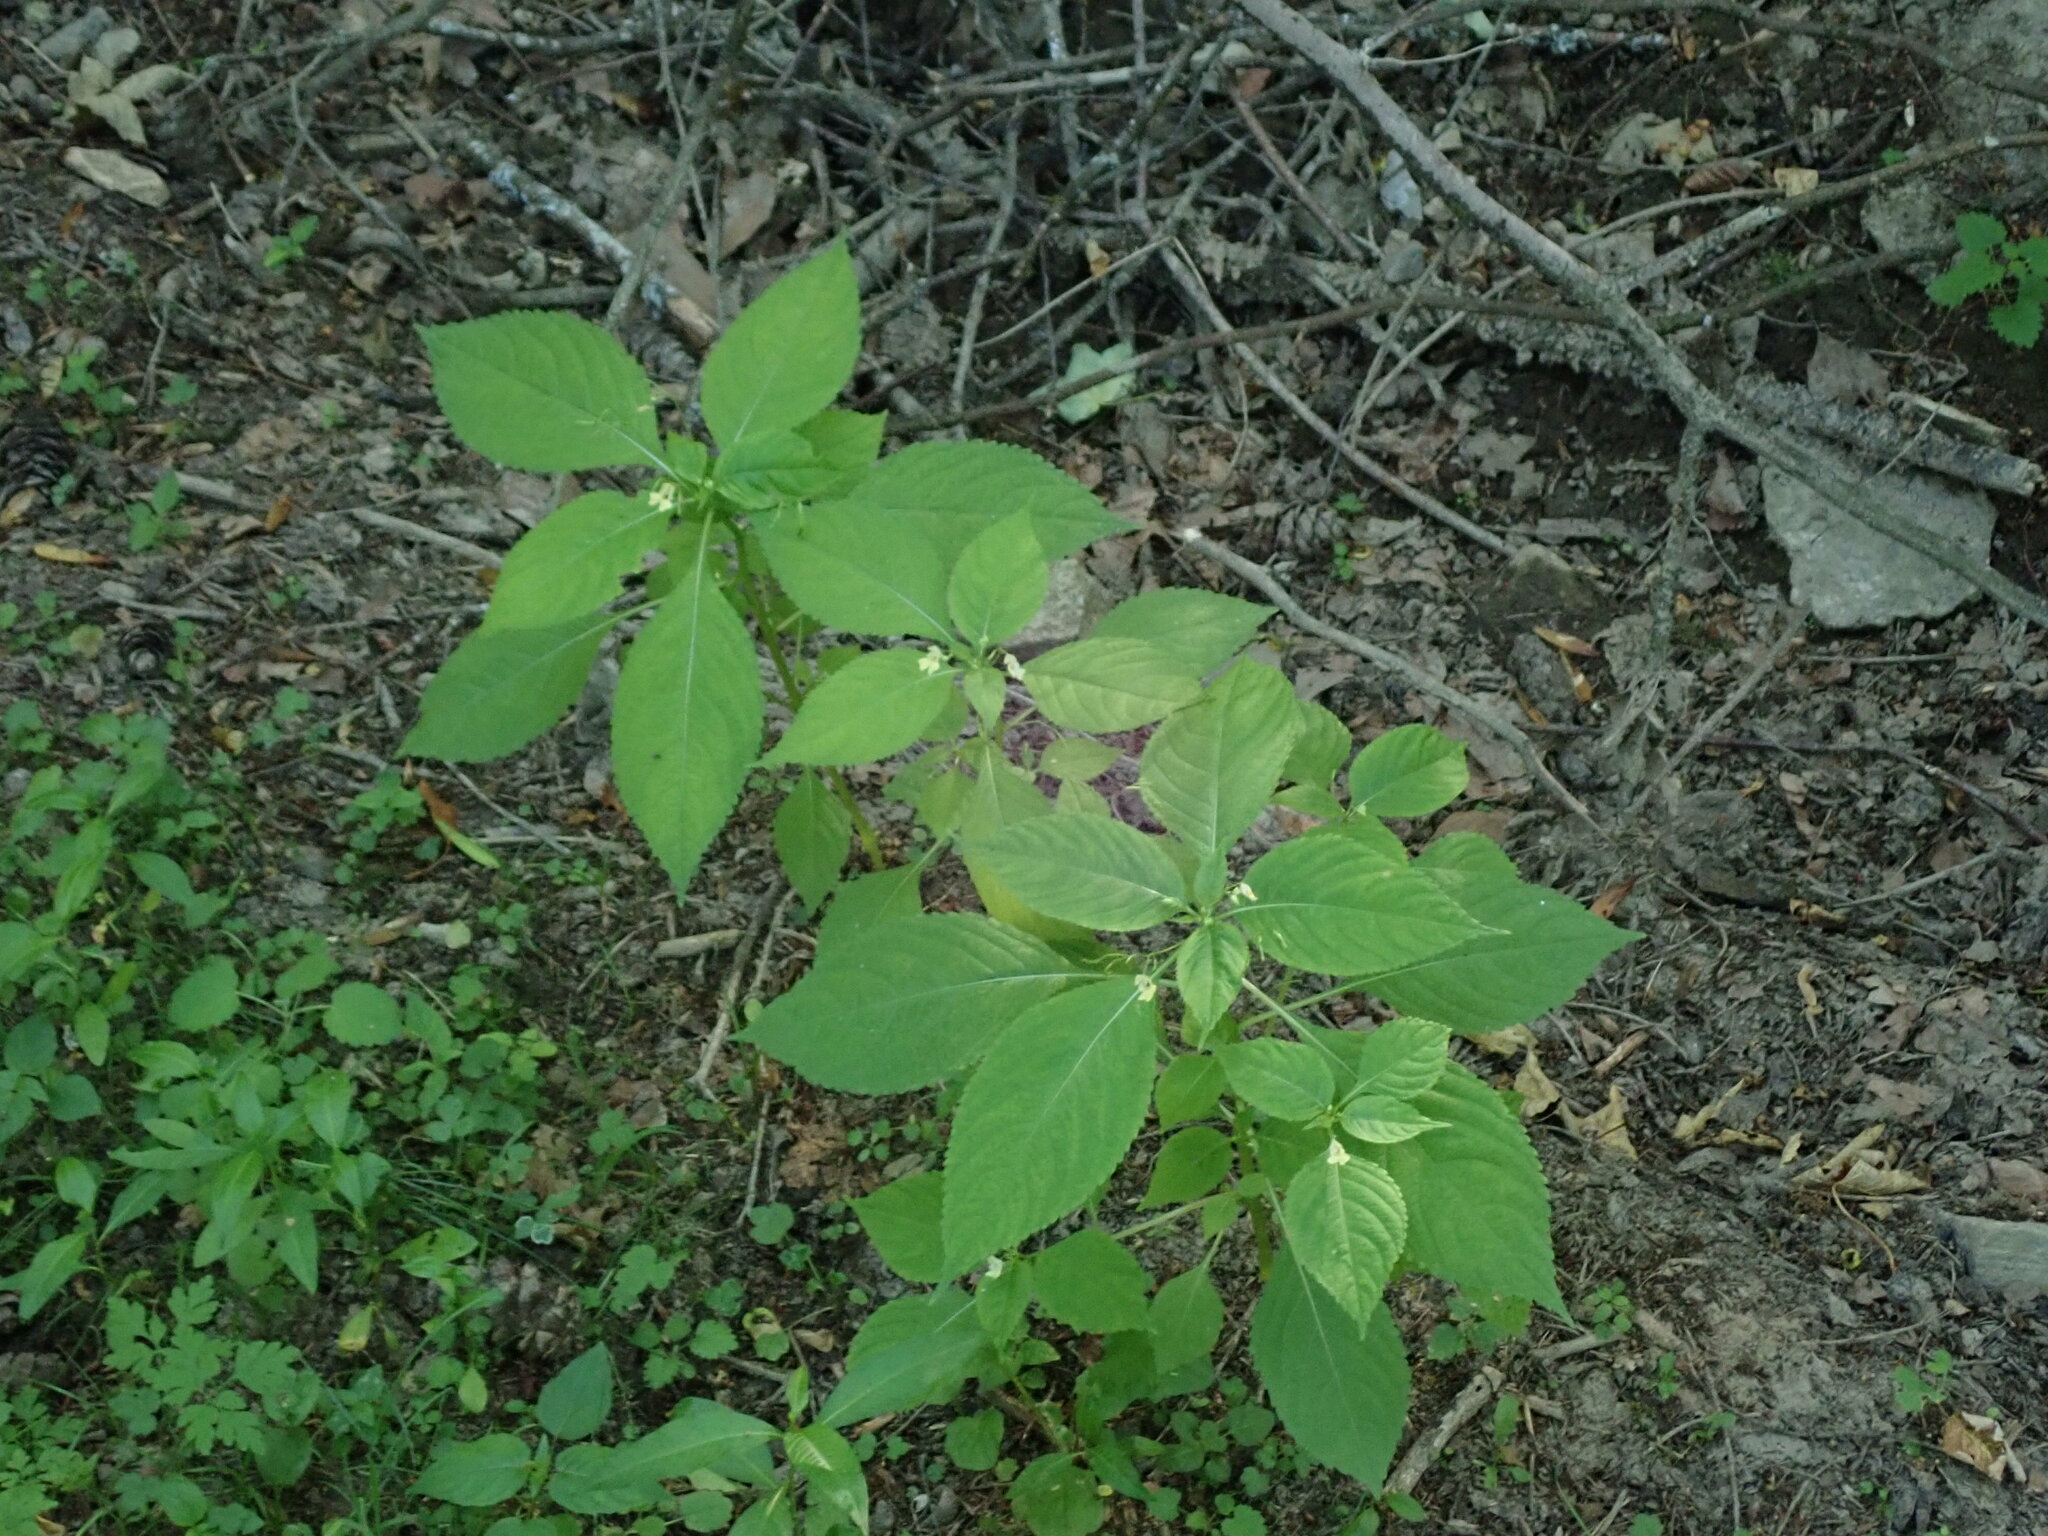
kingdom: Plantae
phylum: Tracheophyta
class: Magnoliopsida
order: Ericales
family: Balsaminaceae
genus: Impatiens
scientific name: Impatiens parviflora
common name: Small balsam
